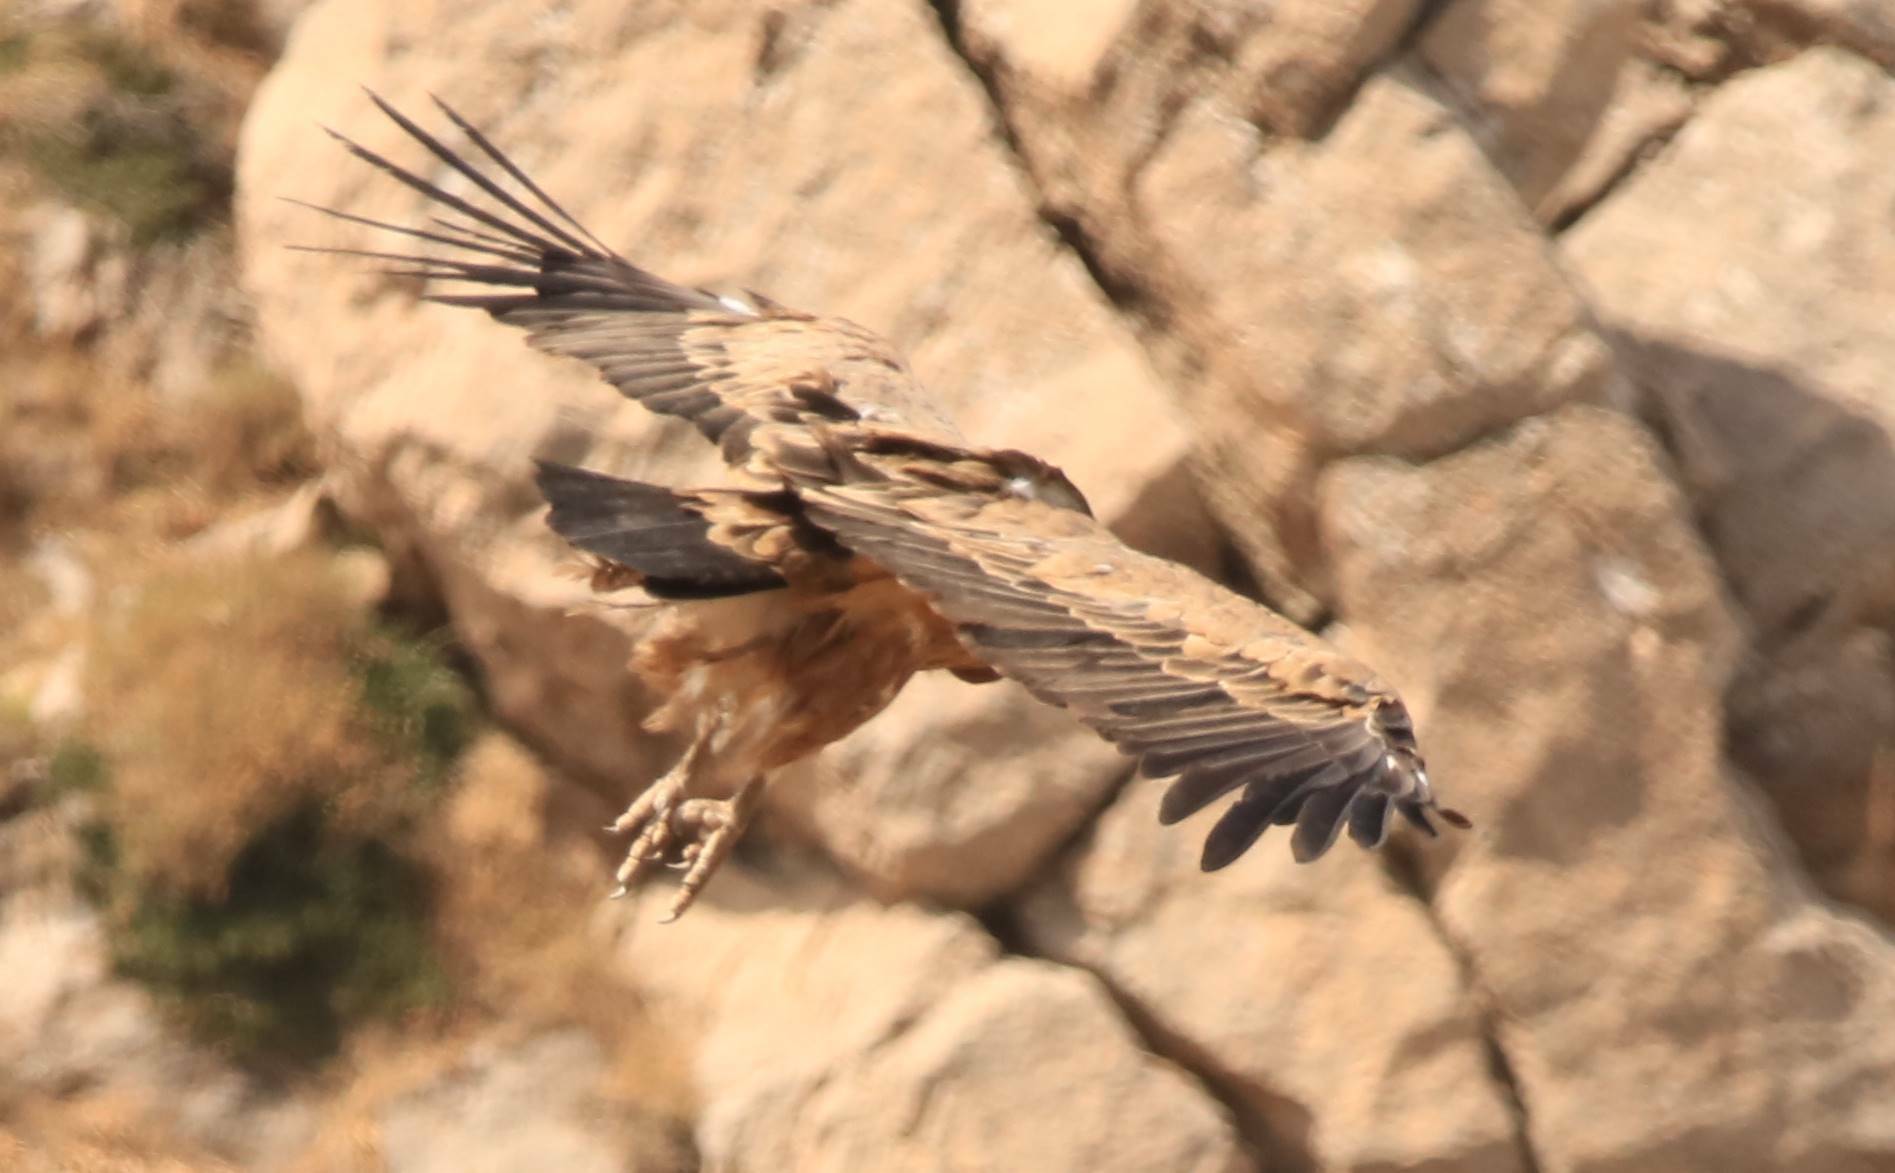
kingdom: Animalia
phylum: Chordata
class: Aves
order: Accipitriformes
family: Accipitridae
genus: Gyps
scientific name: Gyps fulvus
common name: Griffon vulture
